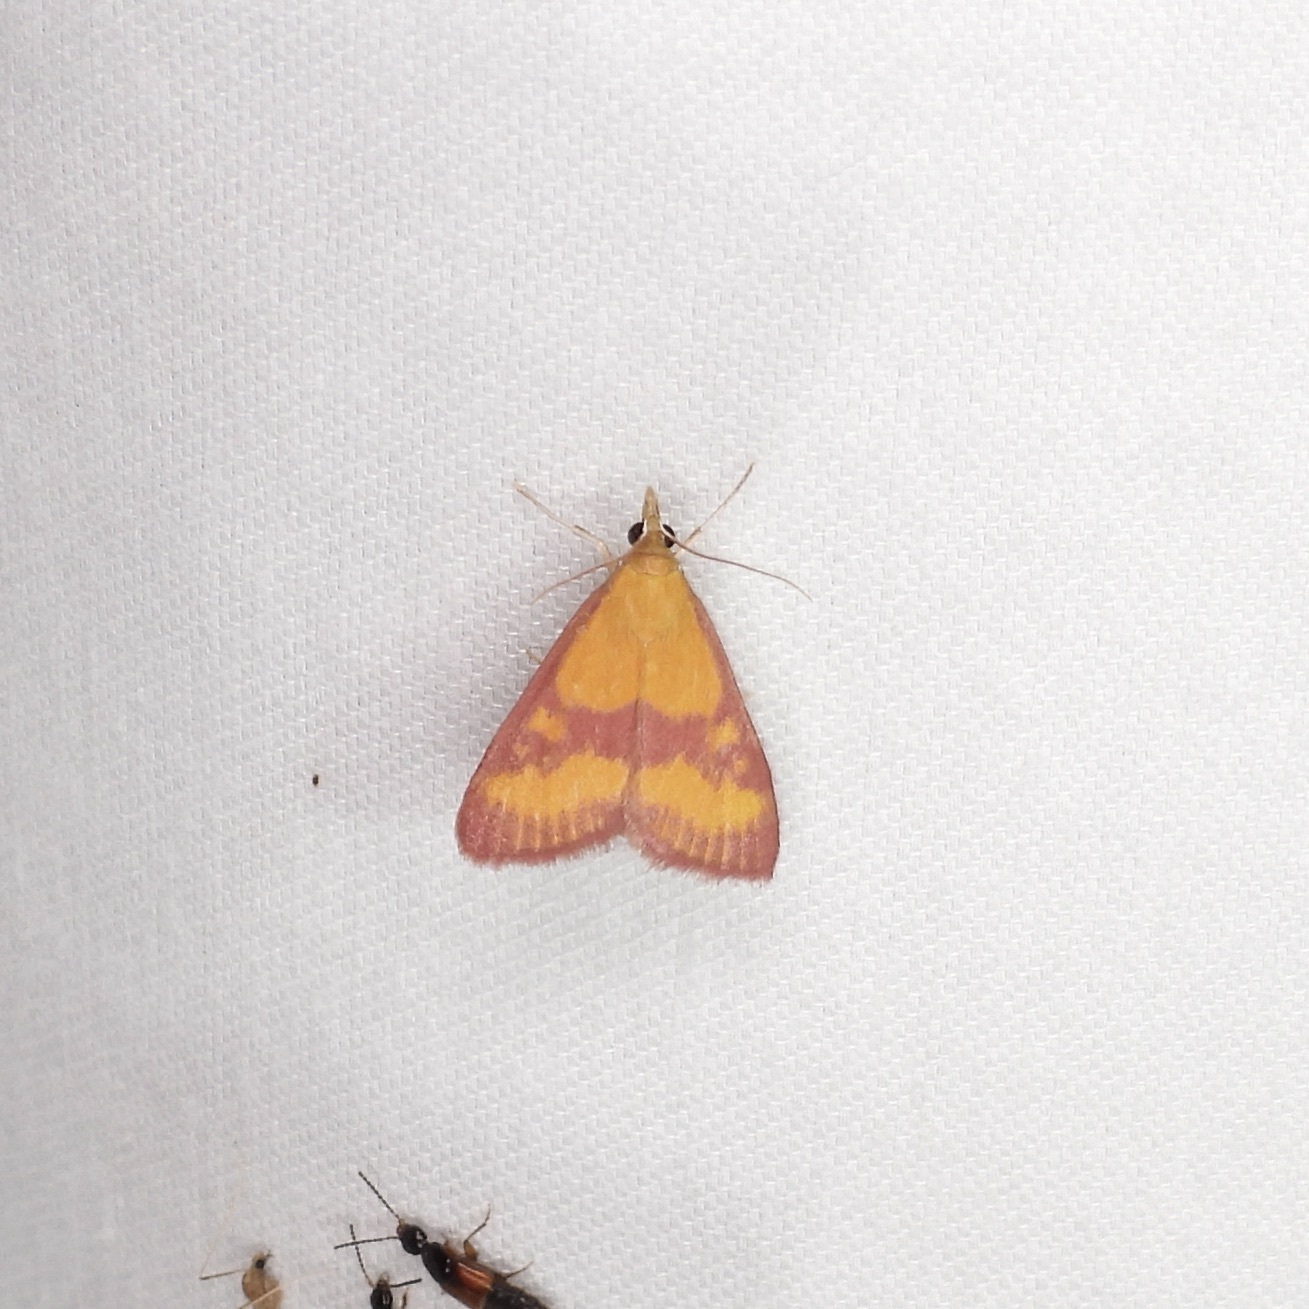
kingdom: Animalia
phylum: Arthropoda
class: Insecta
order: Lepidoptera
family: Crambidae
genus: Pyrausta
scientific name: Pyrausta laticlavia
